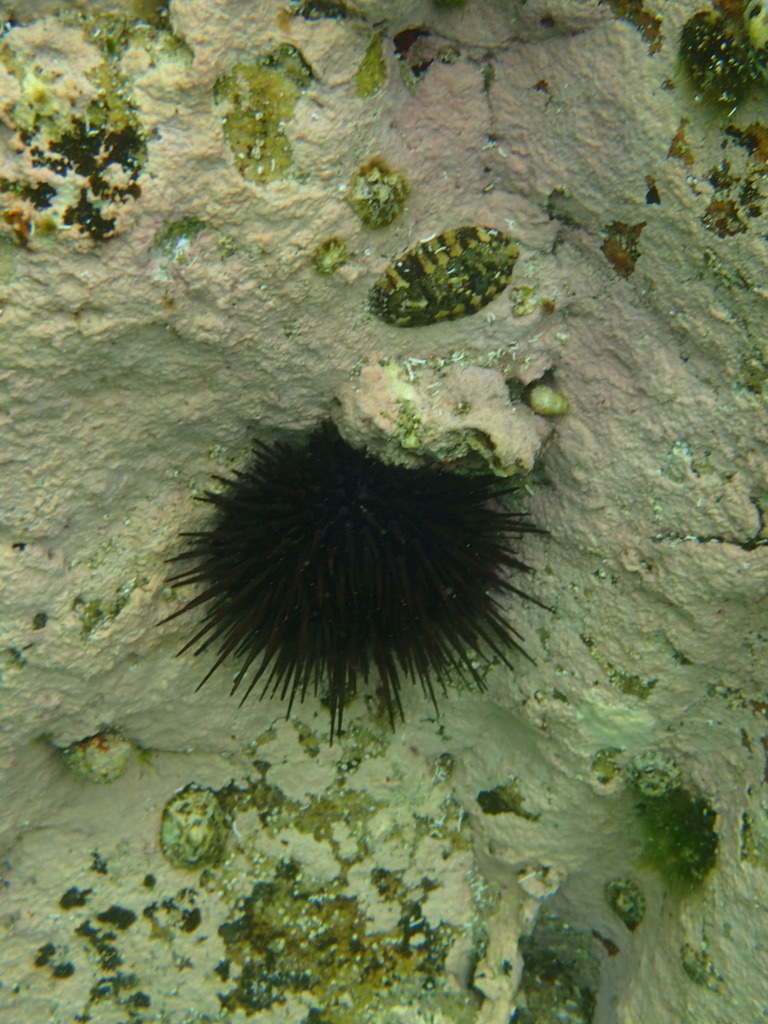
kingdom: Animalia
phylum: Echinodermata
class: Echinoidea
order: Diadematoida
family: Diadematidae
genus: Centrostephanus
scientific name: Centrostephanus rodgersii
